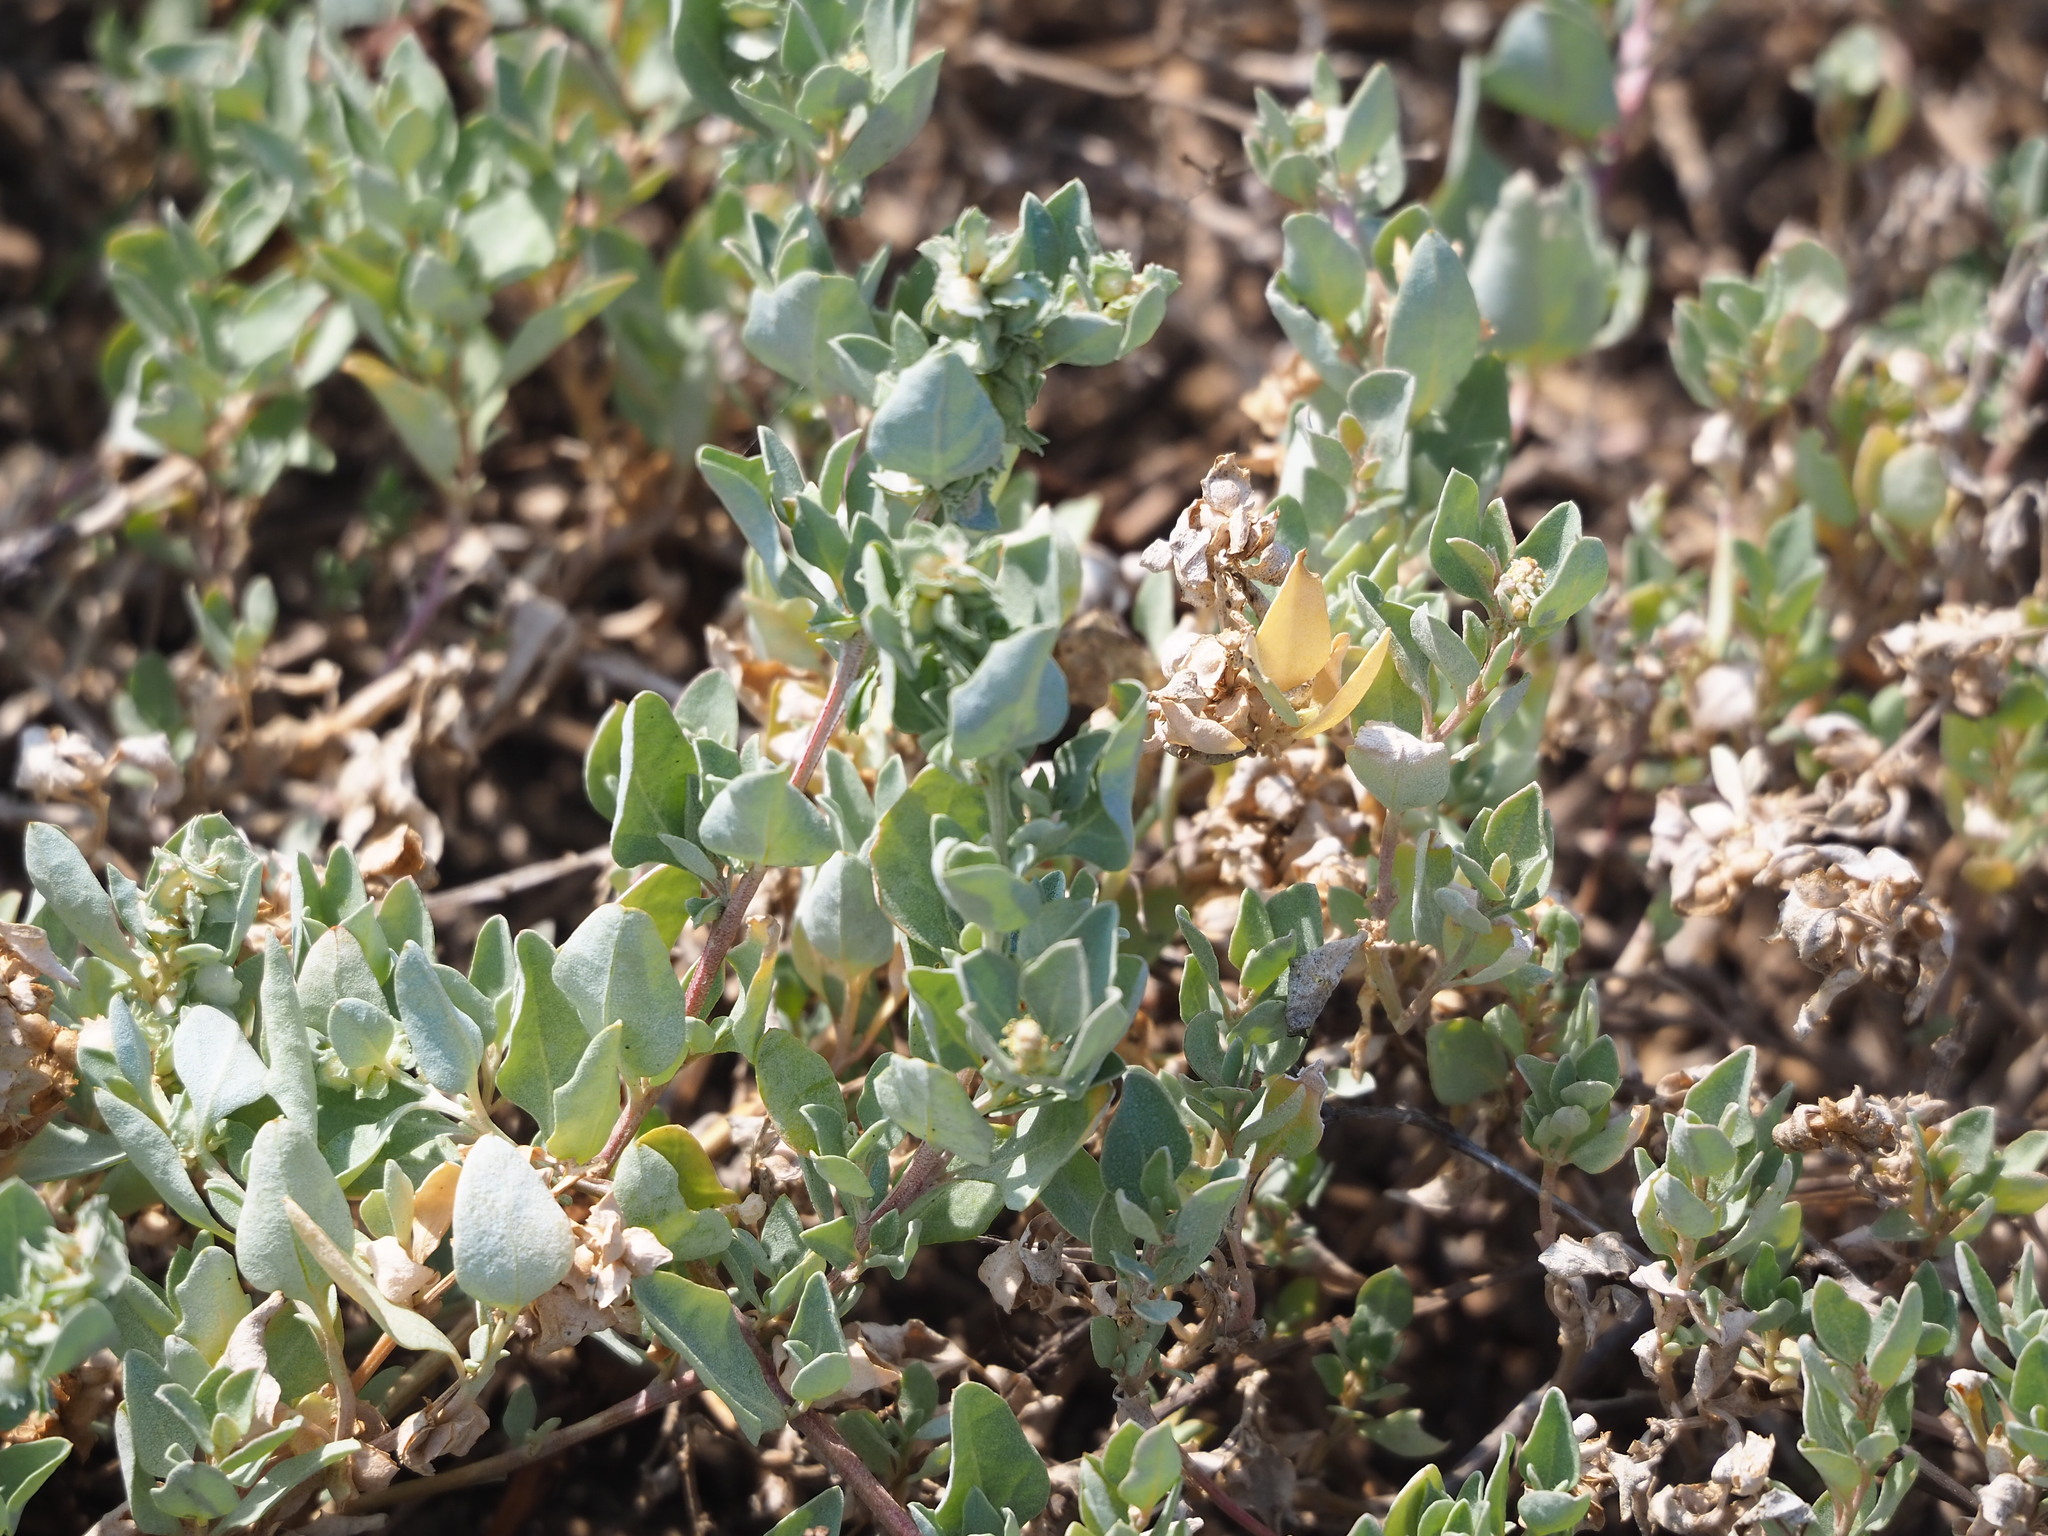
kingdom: Plantae
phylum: Tracheophyta
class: Magnoliopsida
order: Caryophyllales
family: Amaranthaceae
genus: Atriplex
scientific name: Atriplex maximowicziana
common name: Maximowicz's saltbush
